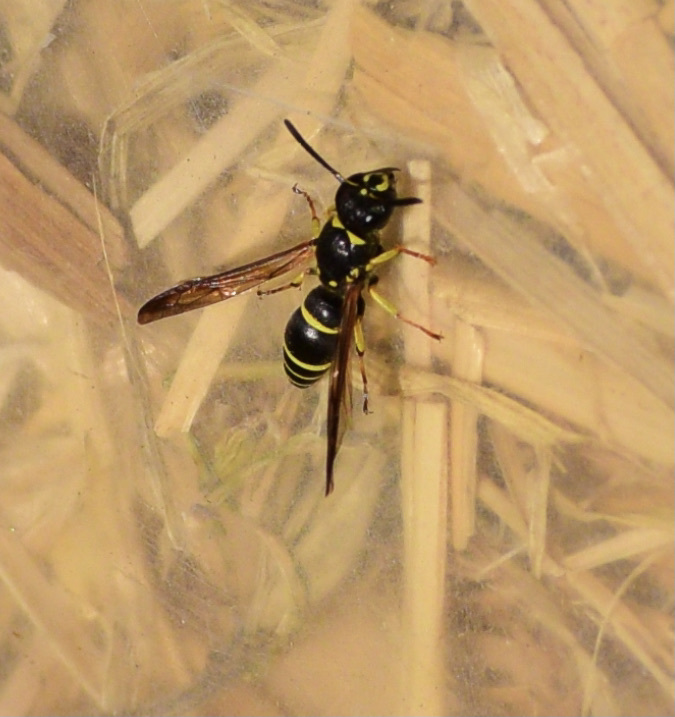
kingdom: Animalia
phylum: Arthropoda
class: Insecta
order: Hymenoptera
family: Vespidae
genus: Ancistrocerus
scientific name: Ancistrocerus adiabatus
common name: Bramble mason wasp
